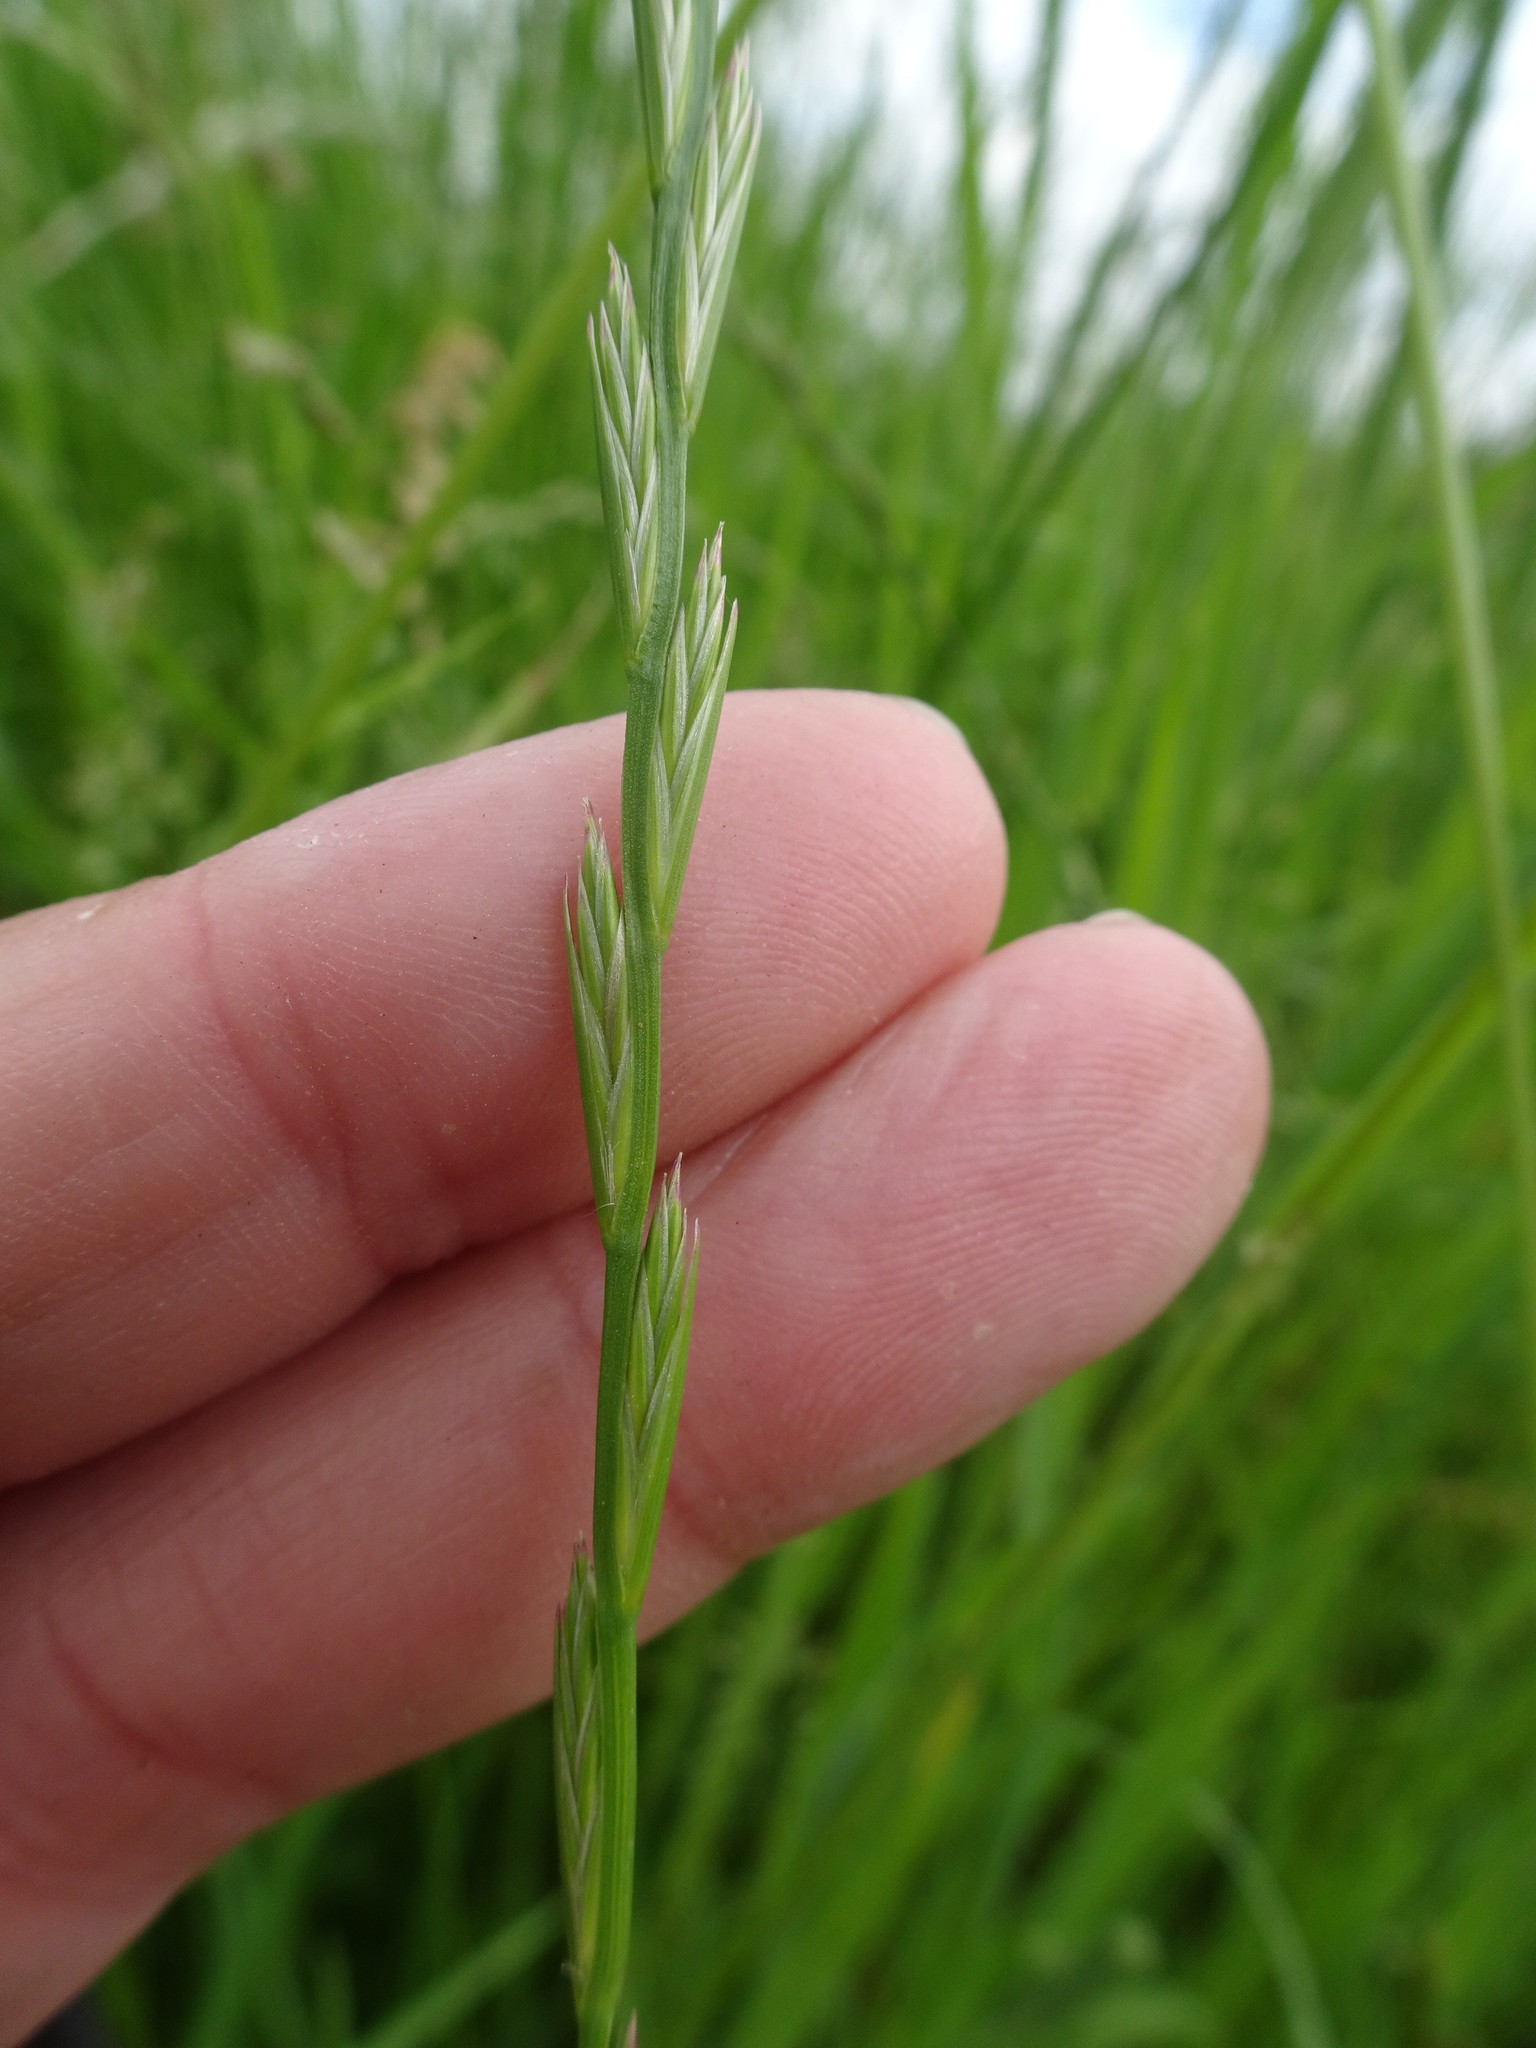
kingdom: Plantae
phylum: Tracheophyta
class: Liliopsida
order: Poales
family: Poaceae
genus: Lolium
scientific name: Lolium perenne
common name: Perennial ryegrass
